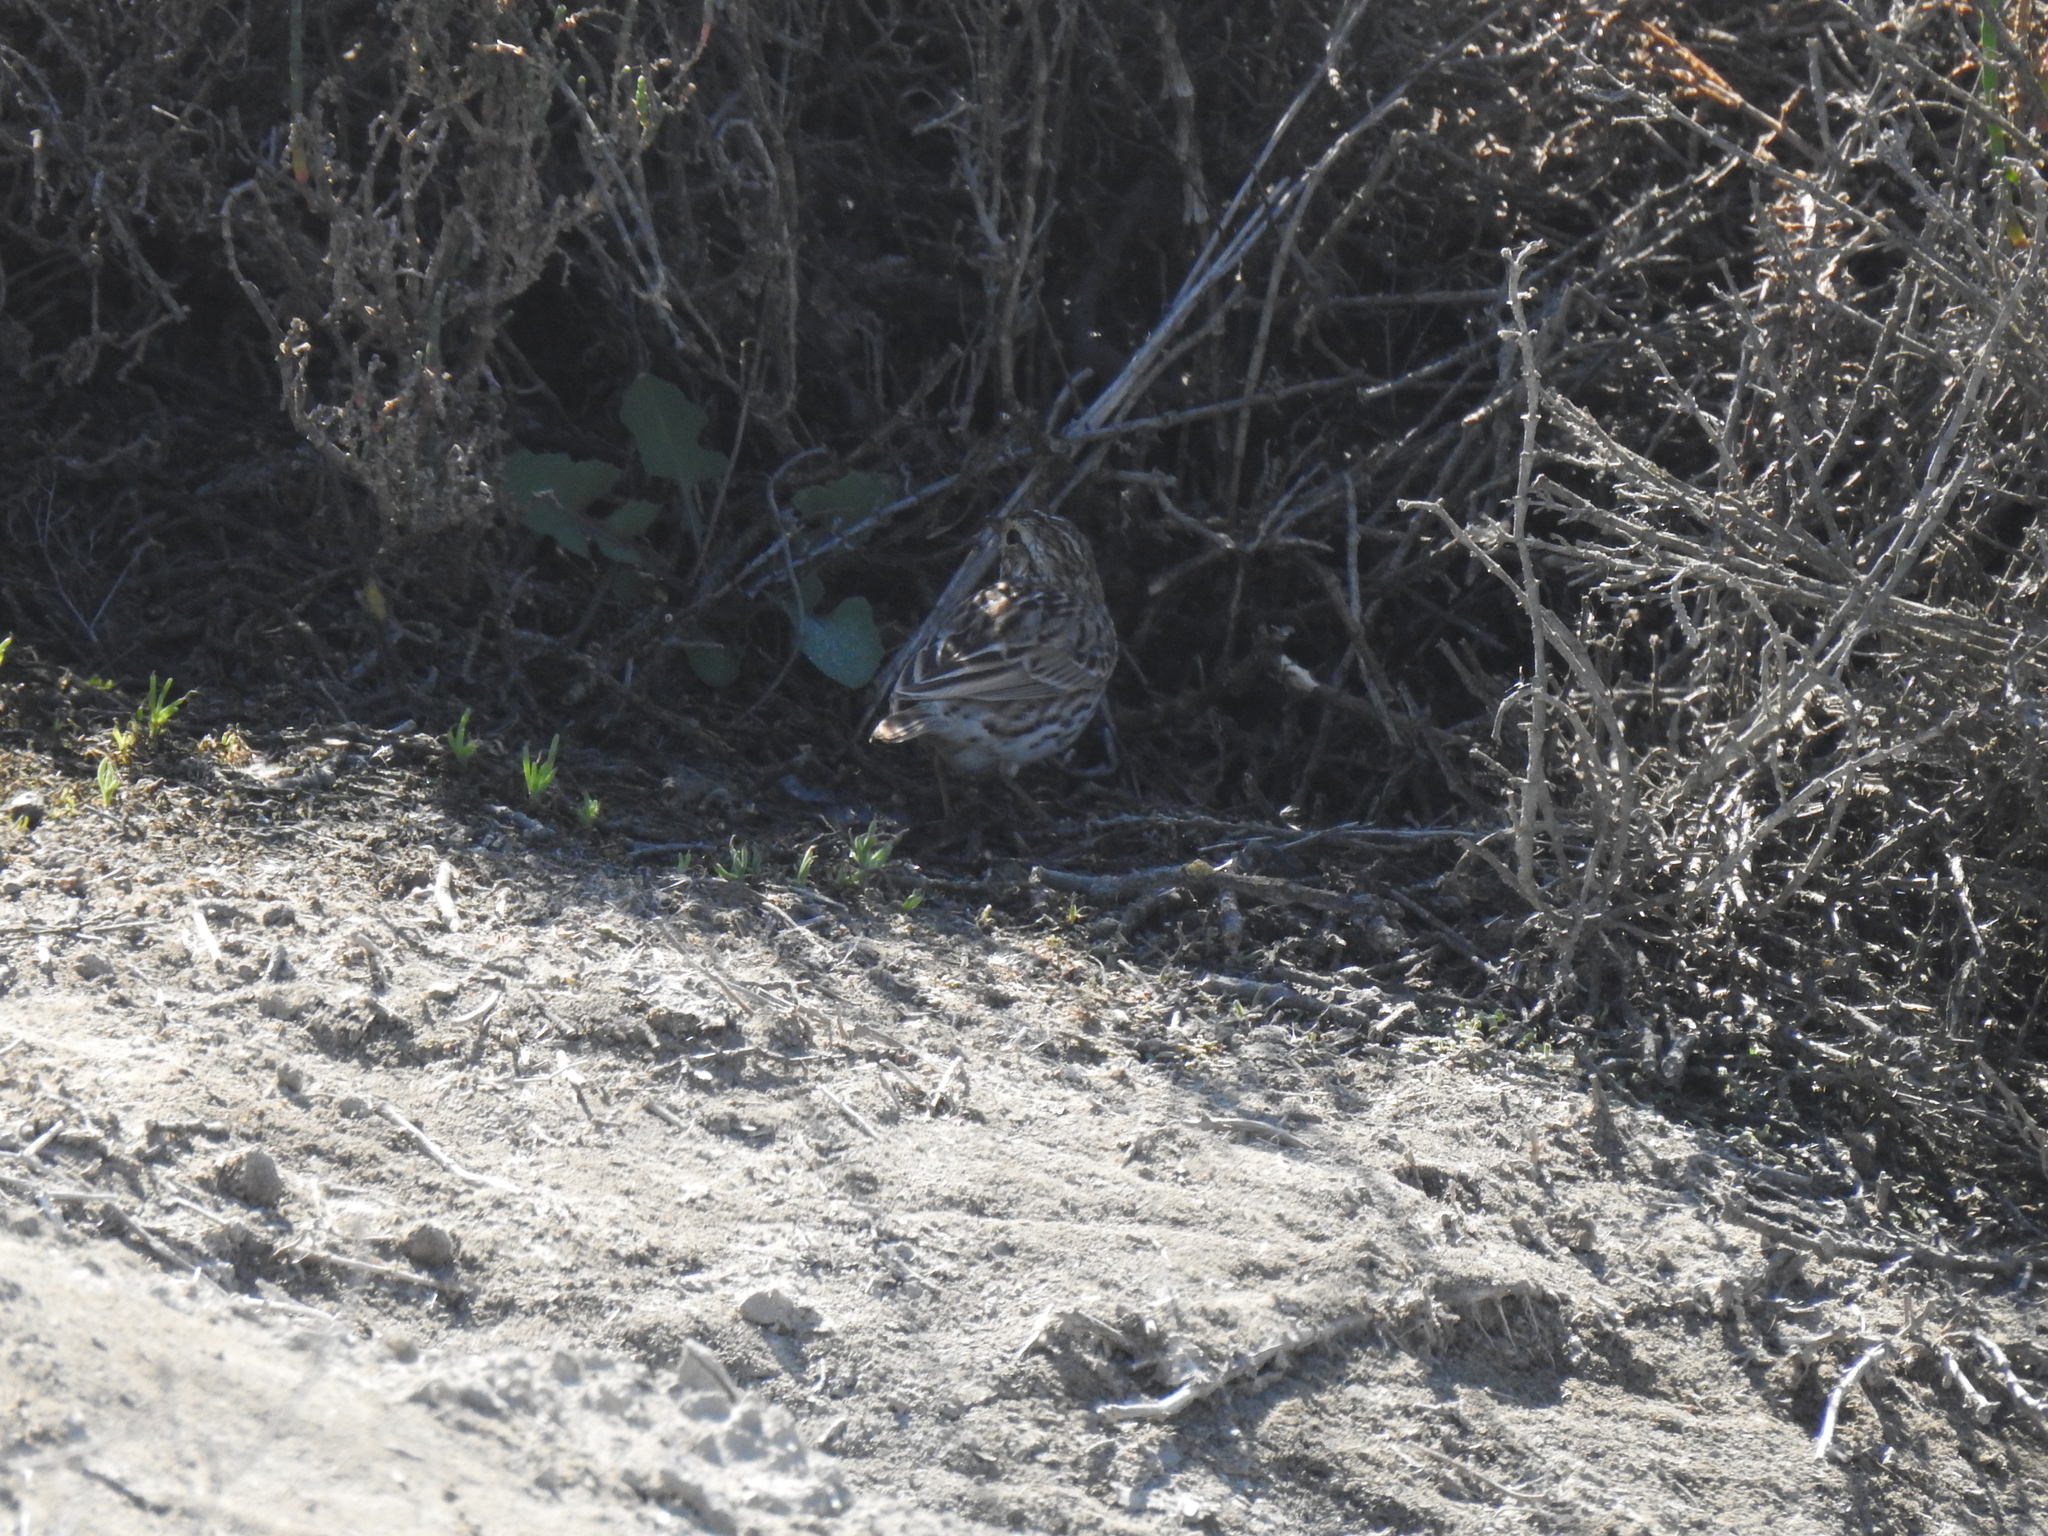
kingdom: Animalia
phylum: Chordata
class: Aves
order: Passeriformes
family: Passerellidae
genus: Passerculus
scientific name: Passerculus sandwichensis
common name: Savannah sparrow
